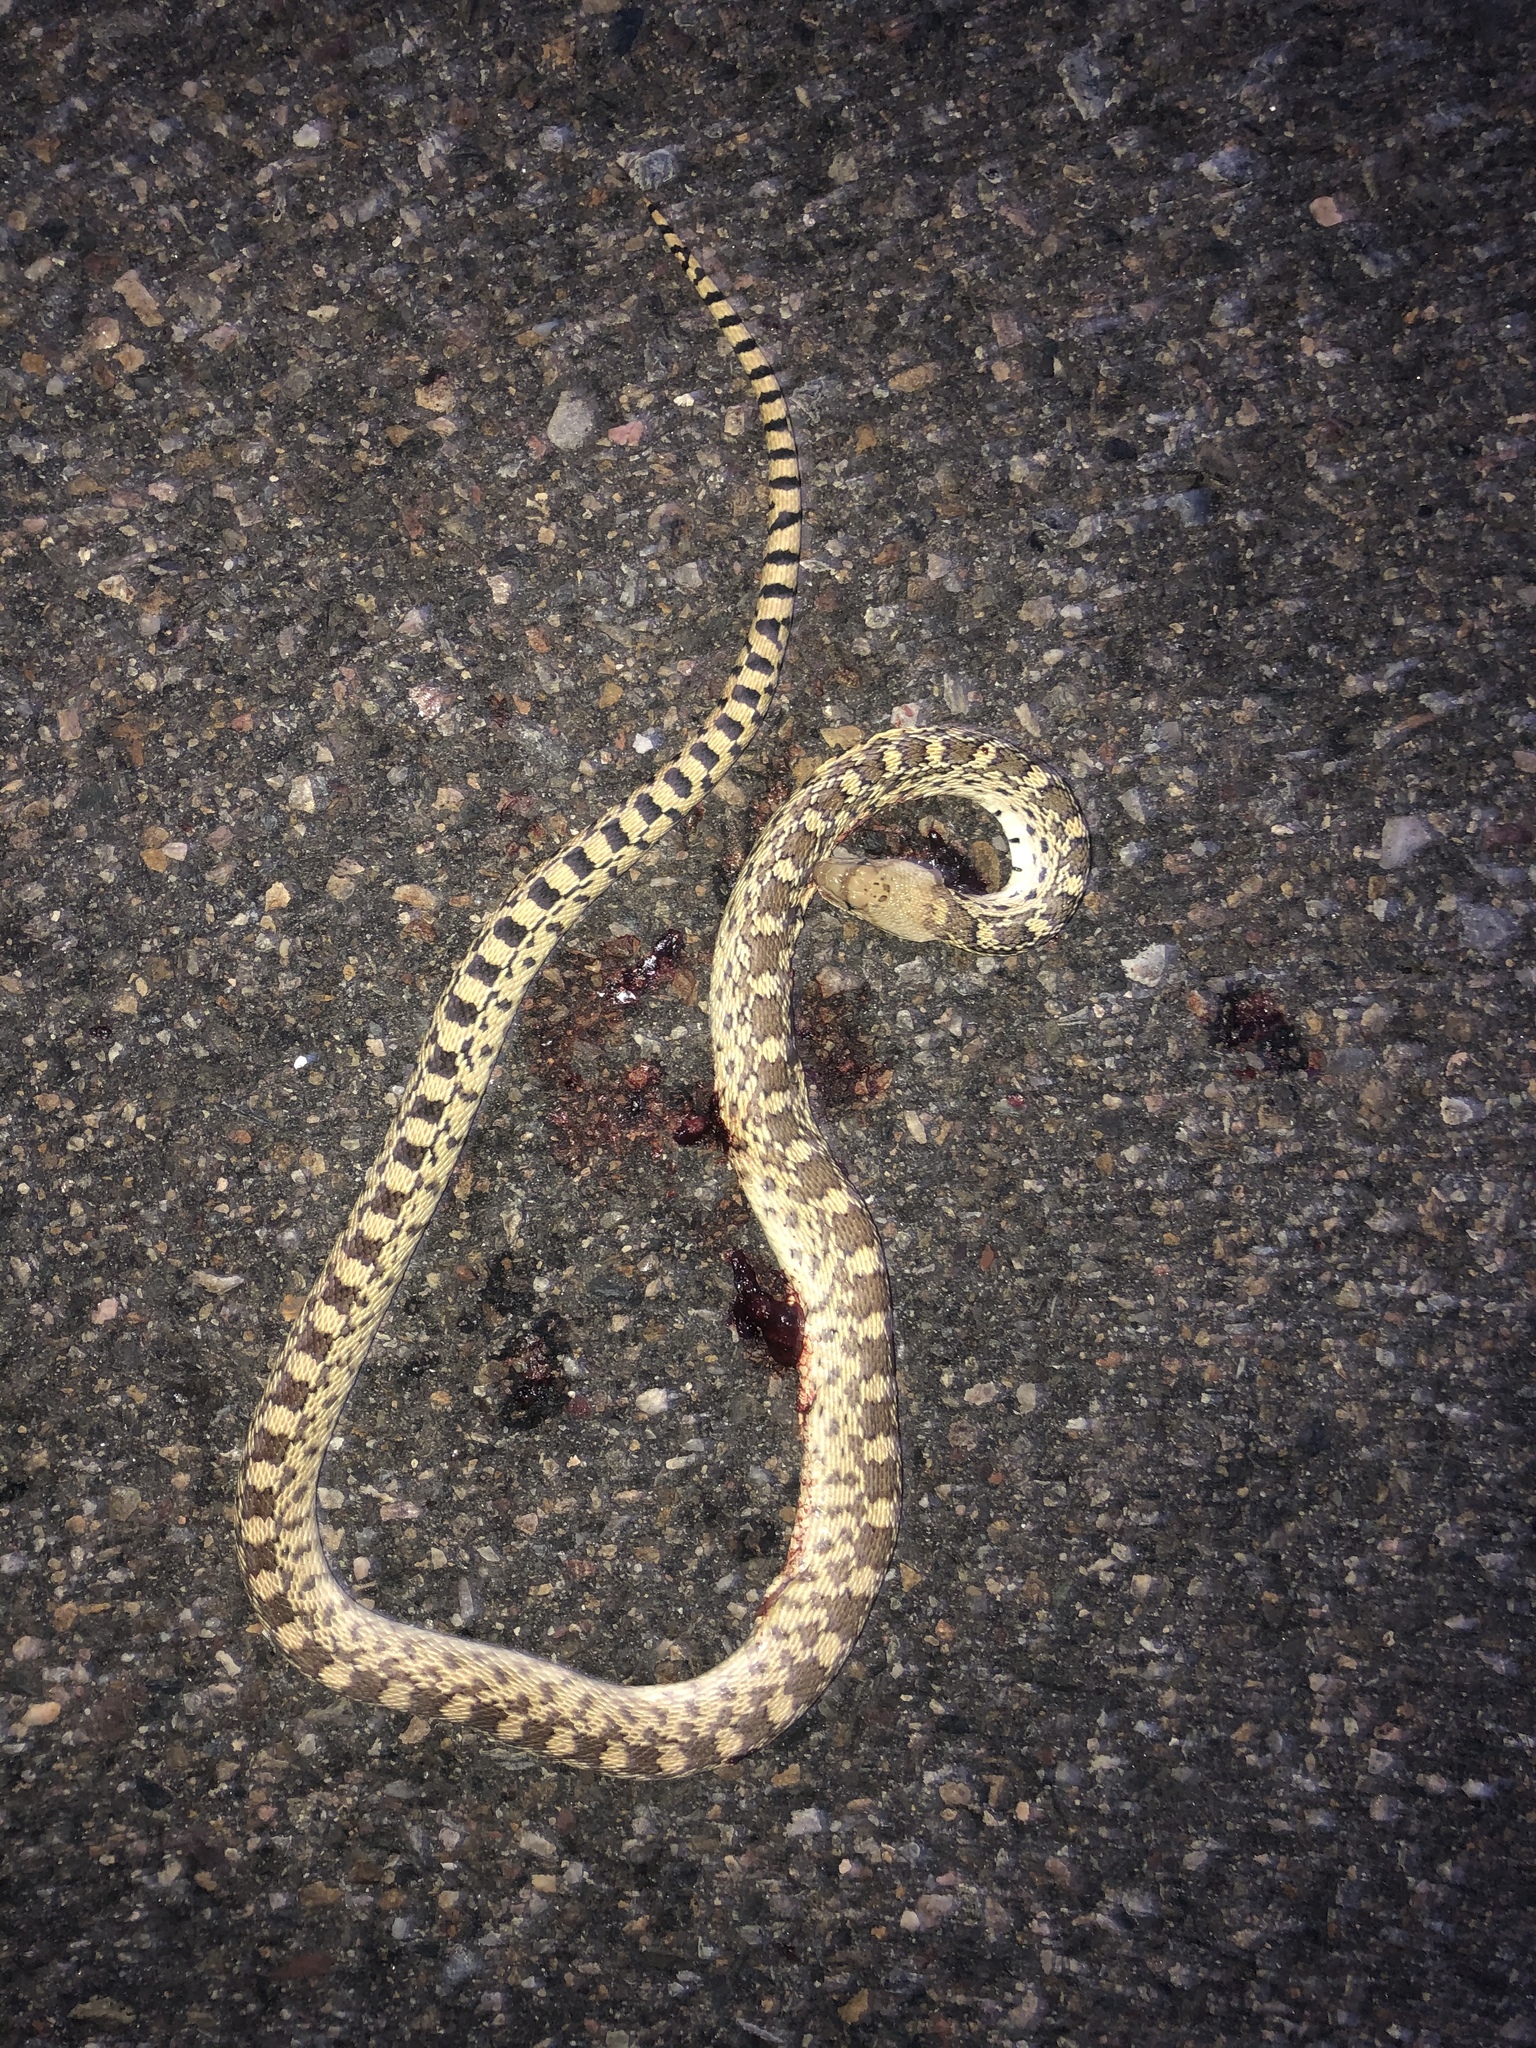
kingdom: Animalia
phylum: Chordata
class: Squamata
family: Colubridae
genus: Pituophis
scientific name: Pituophis catenifer
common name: Gopher snake
